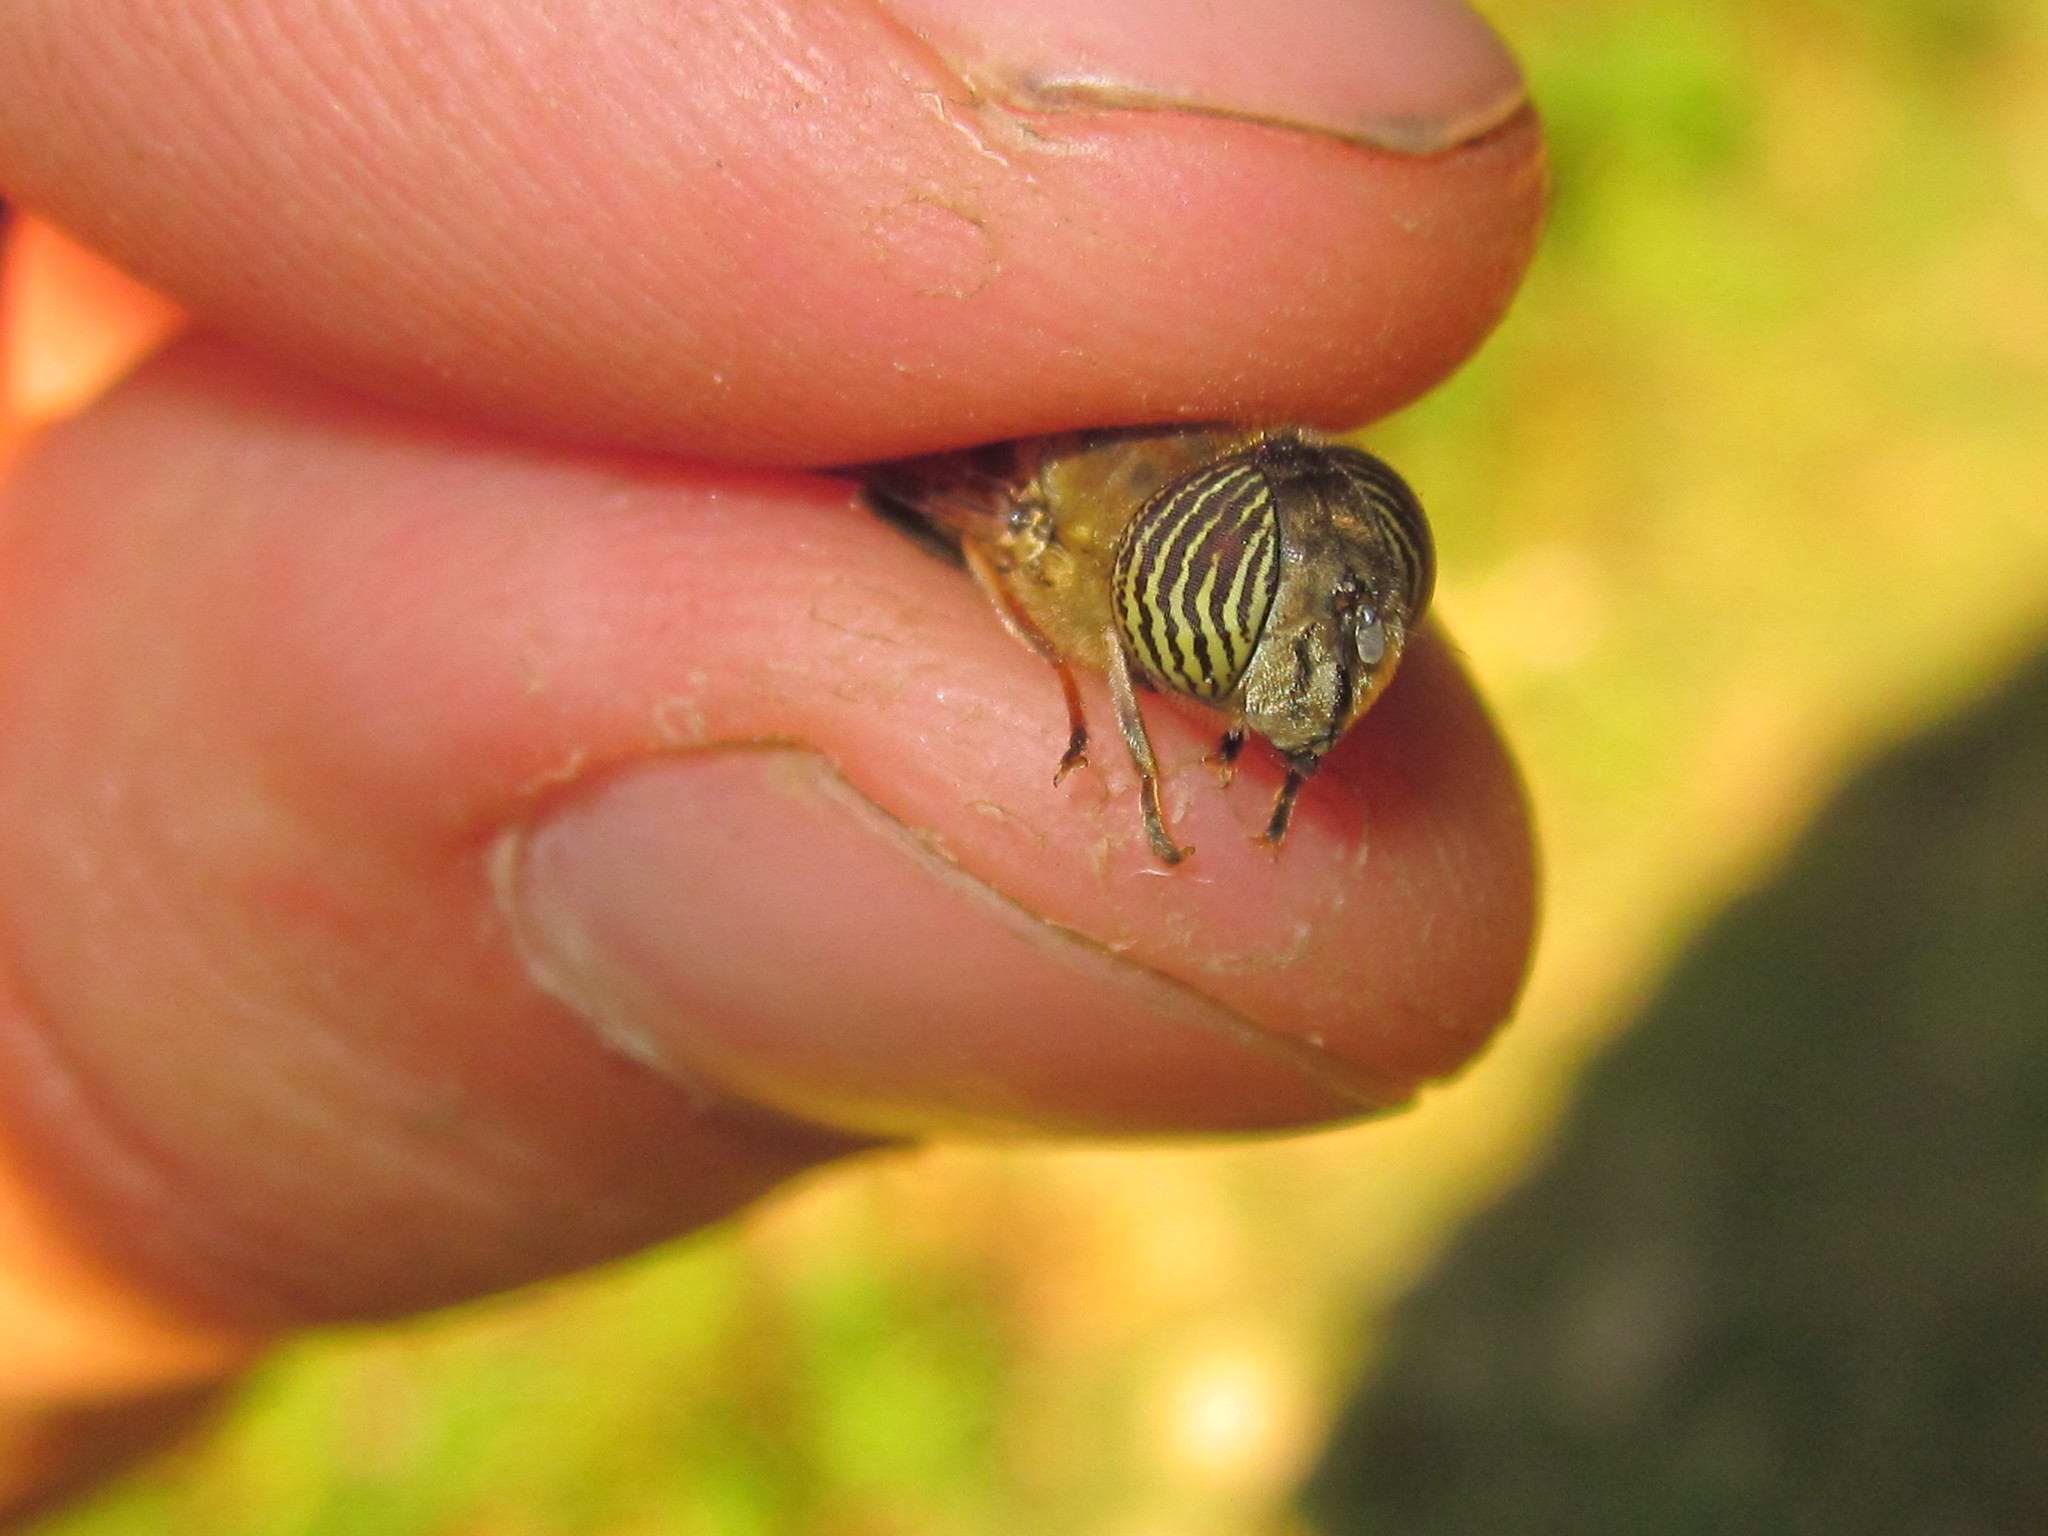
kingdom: Animalia
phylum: Arthropoda
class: Insecta
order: Diptera
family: Syrphidae
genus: Eristalinus
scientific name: Eristalinus taeniops
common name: Syrphid fly
